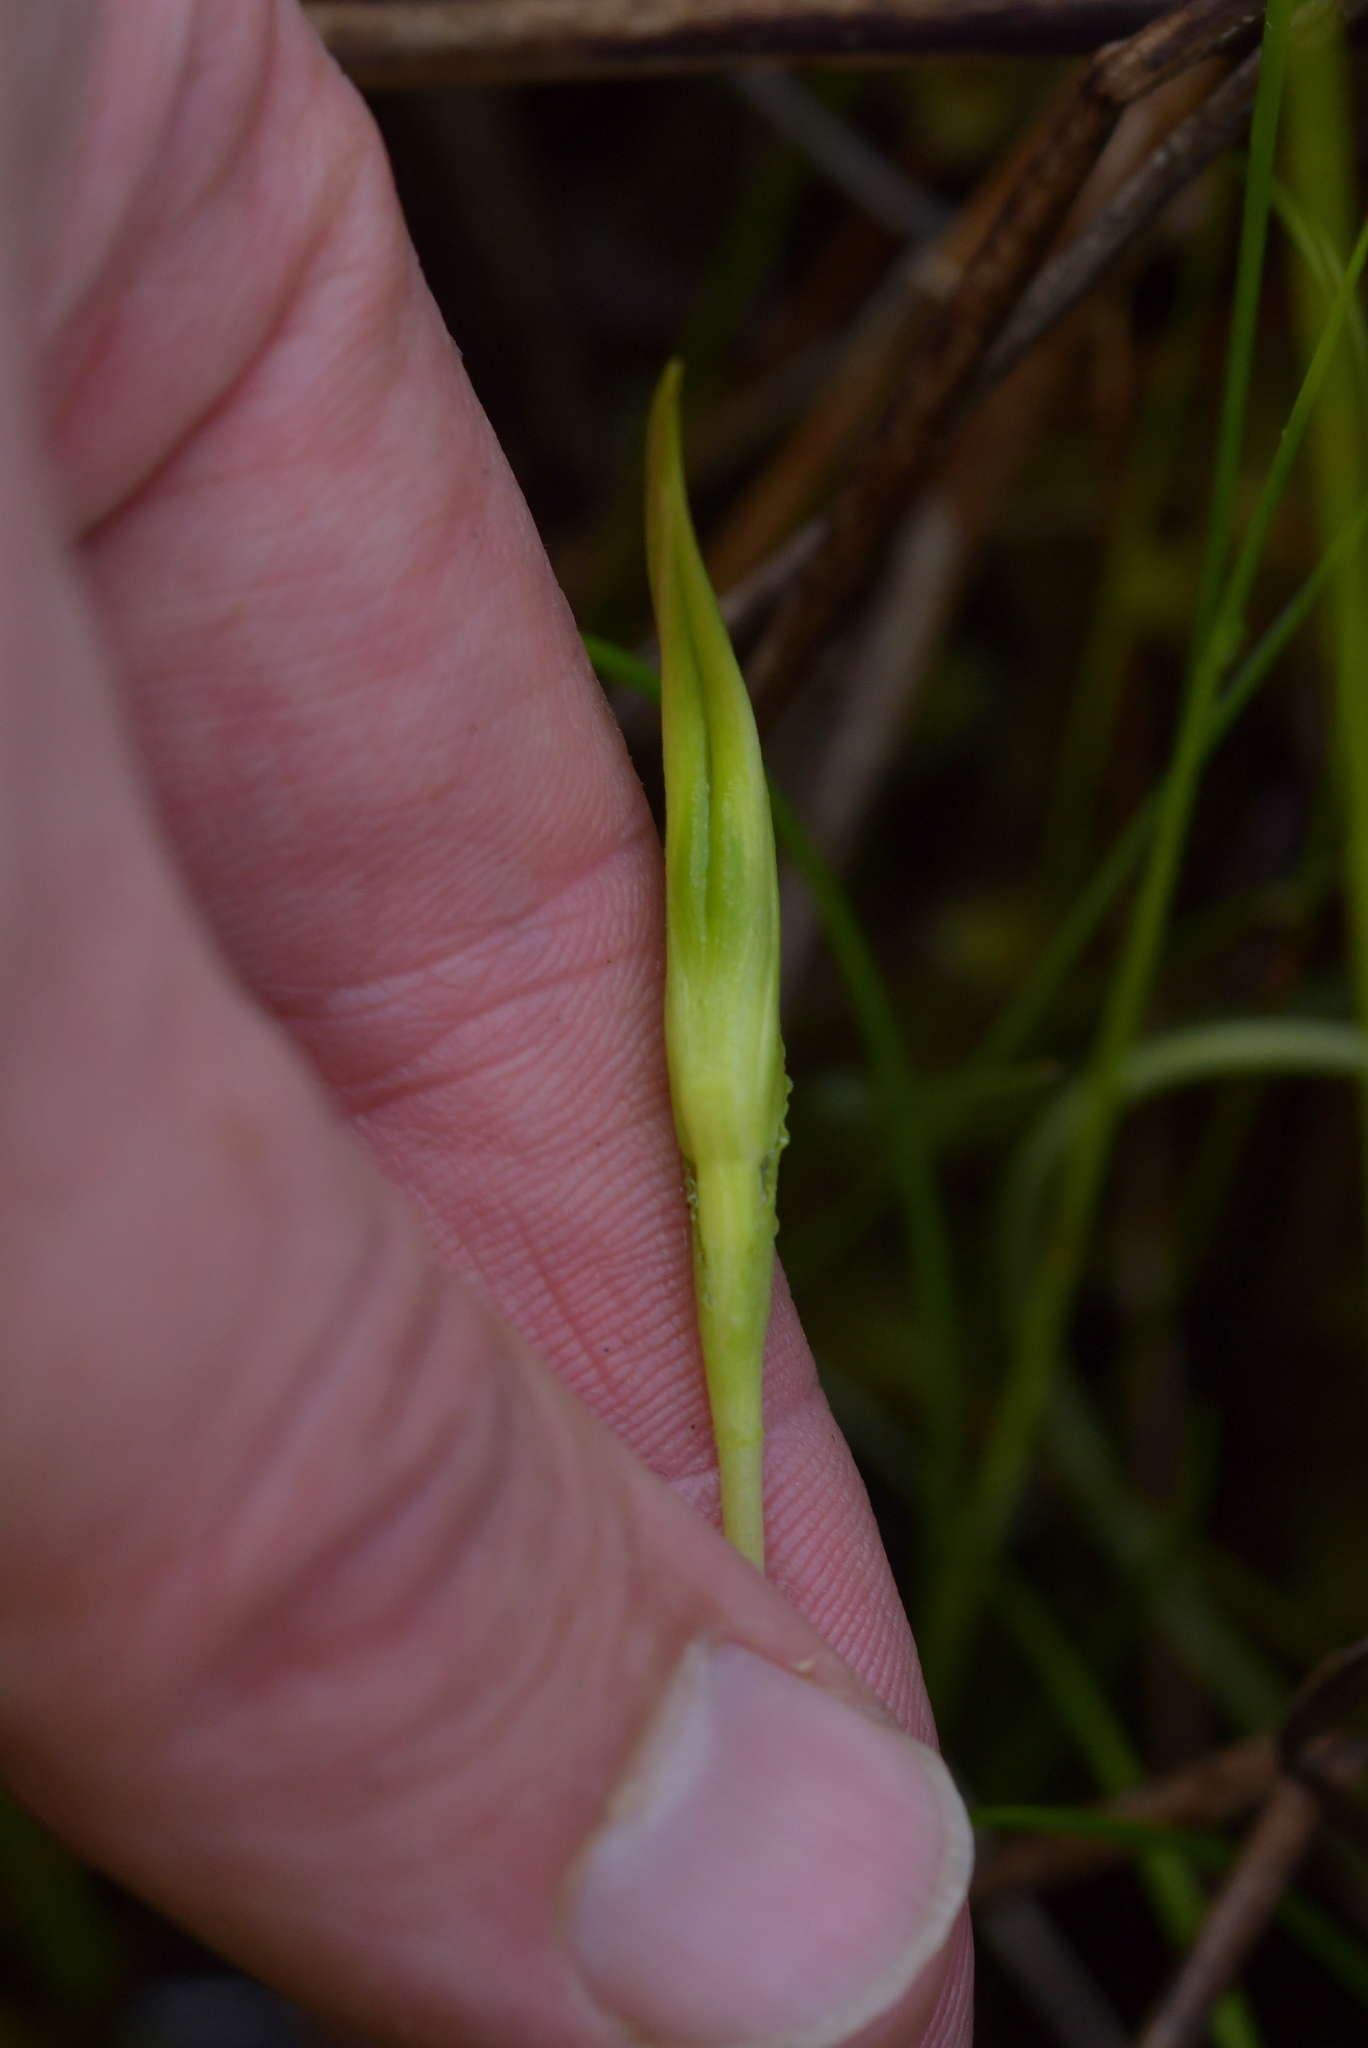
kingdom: Plantae
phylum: Tracheophyta
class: Liliopsida
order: Asparagales
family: Orchidaceae
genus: Pterostylis
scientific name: Pterostylis micromega
